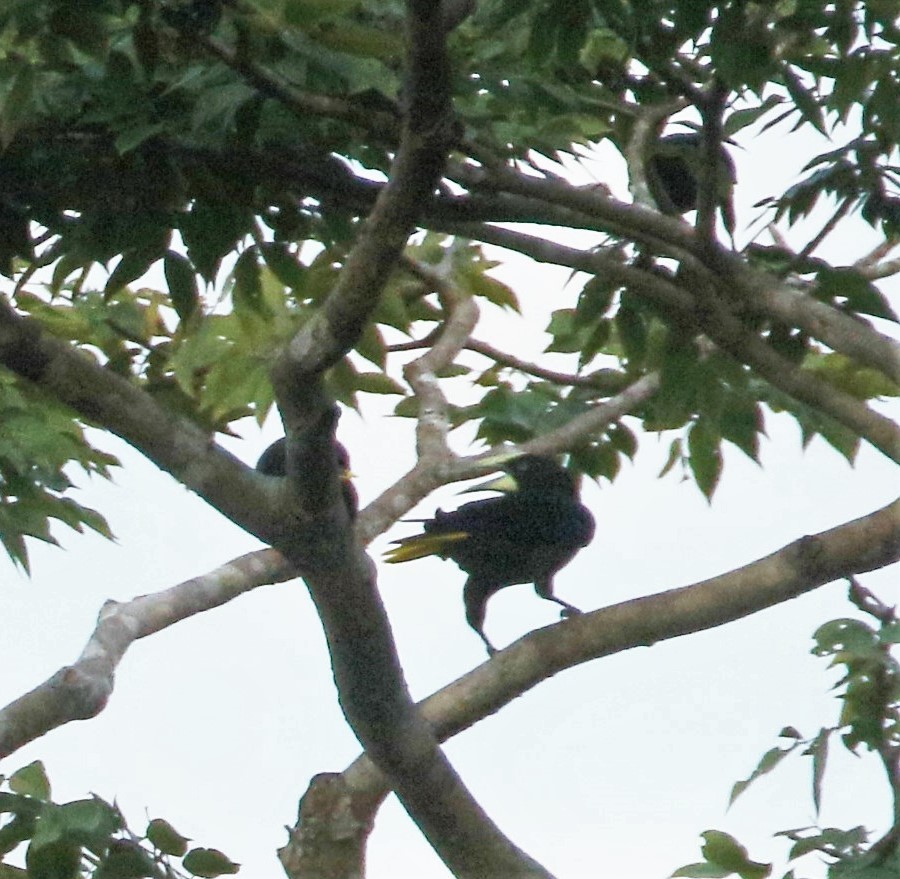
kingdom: Animalia
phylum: Chordata
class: Aves
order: Passeriformes
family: Icteridae
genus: Psarocolius
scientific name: Psarocolius wagleri
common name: Chestnut-headed oropendola
